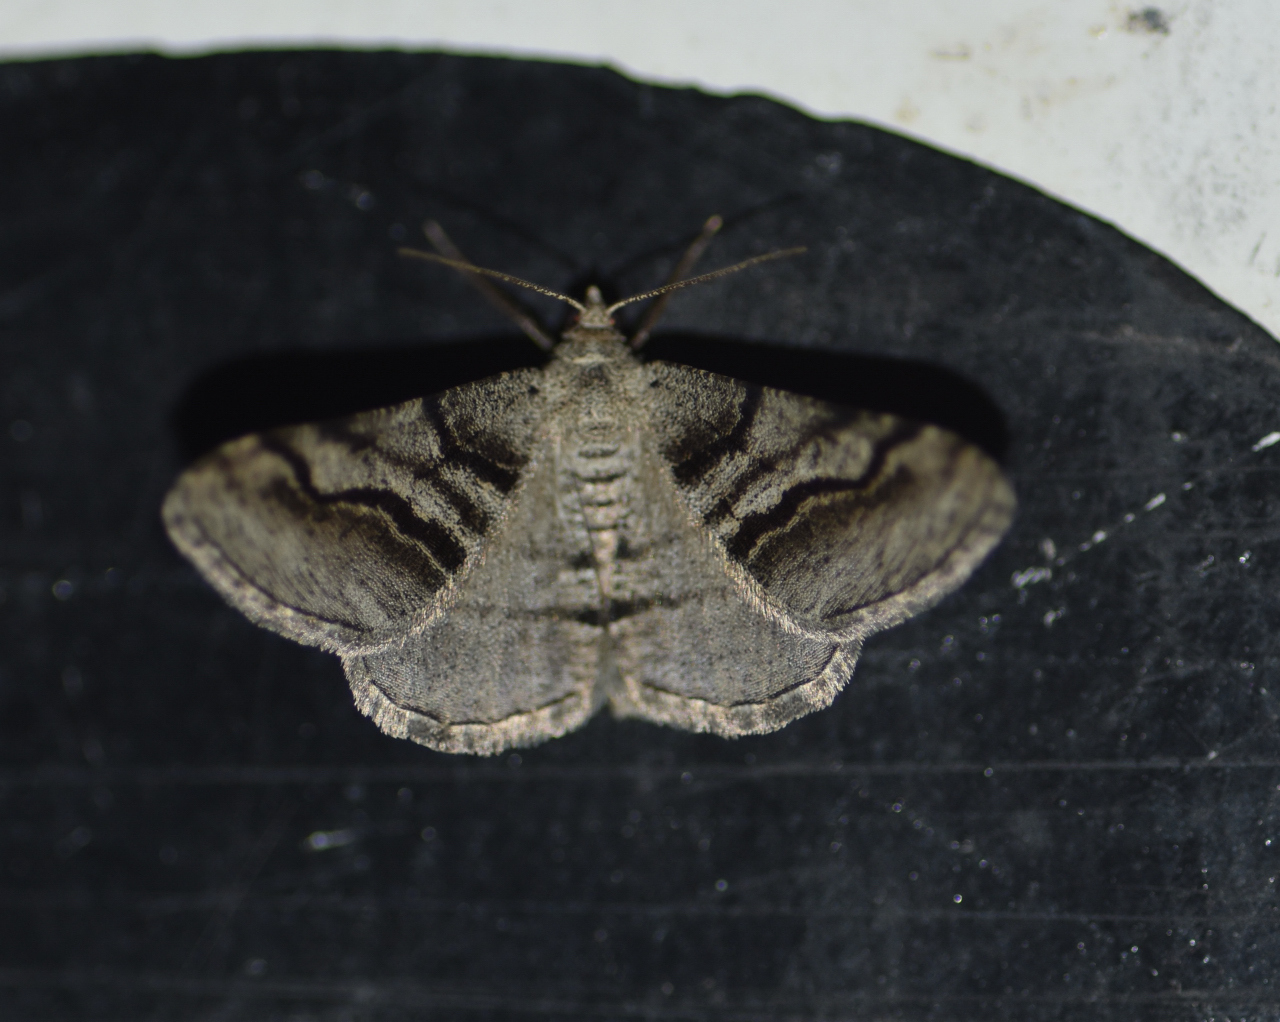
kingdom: Animalia
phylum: Arthropoda
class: Insecta
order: Lepidoptera
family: Geometridae
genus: Digrammia
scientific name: Digrammia continuata
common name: Curve-lined angle
